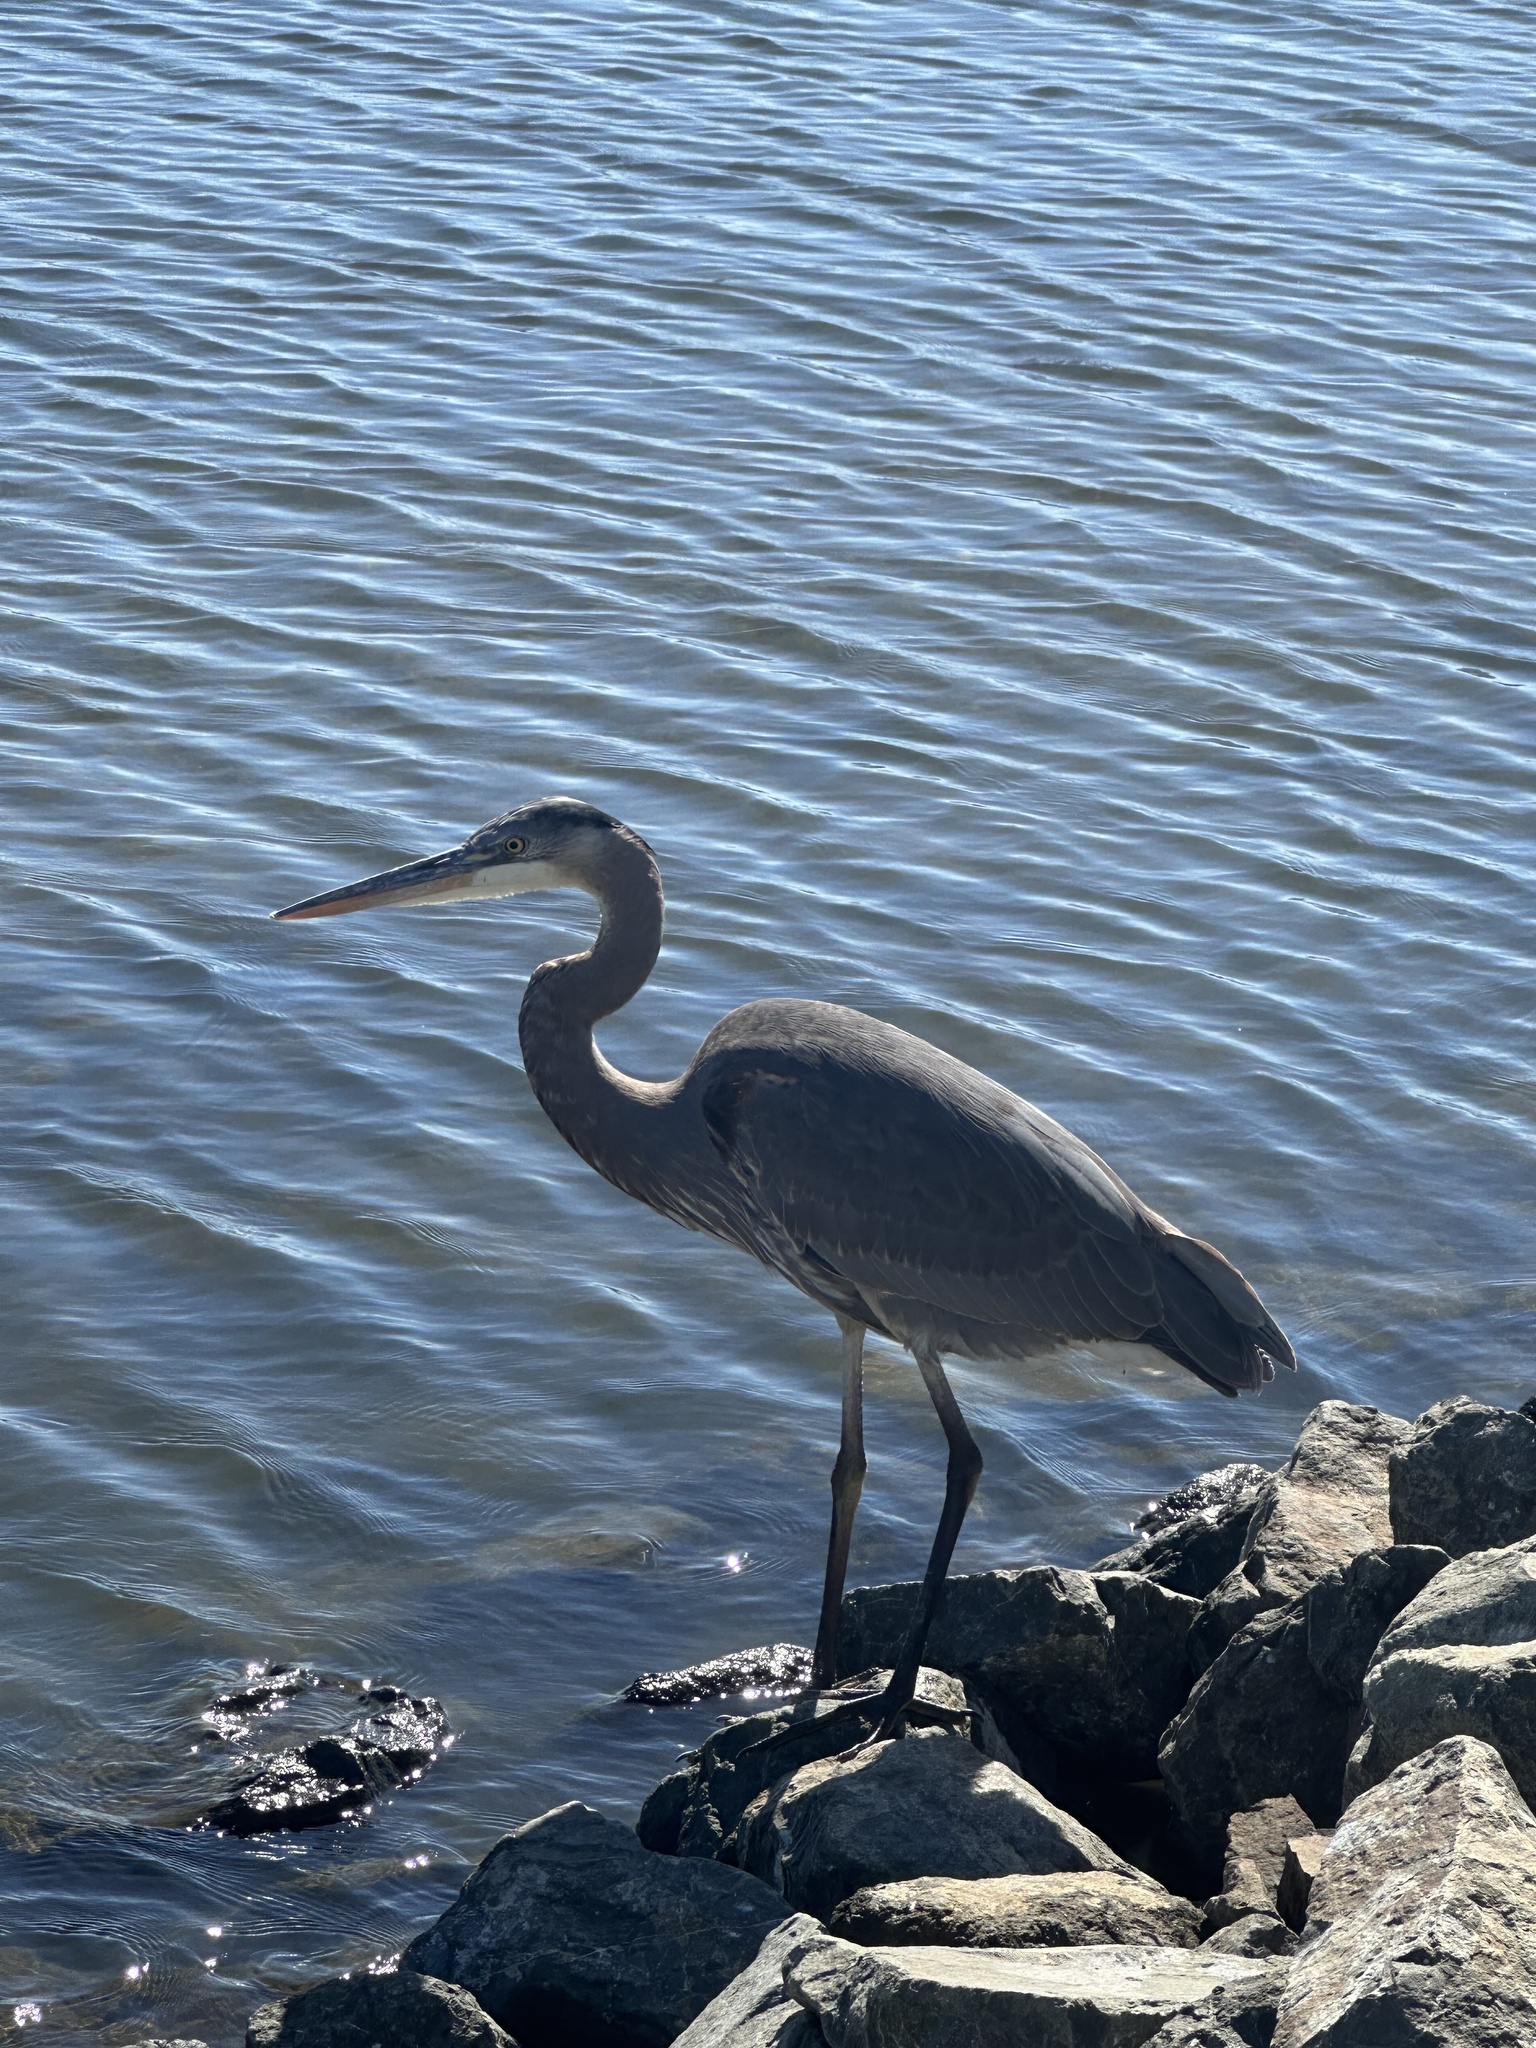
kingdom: Animalia
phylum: Chordata
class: Aves
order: Pelecaniformes
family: Ardeidae
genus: Ardea
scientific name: Ardea herodias
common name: Great blue heron
